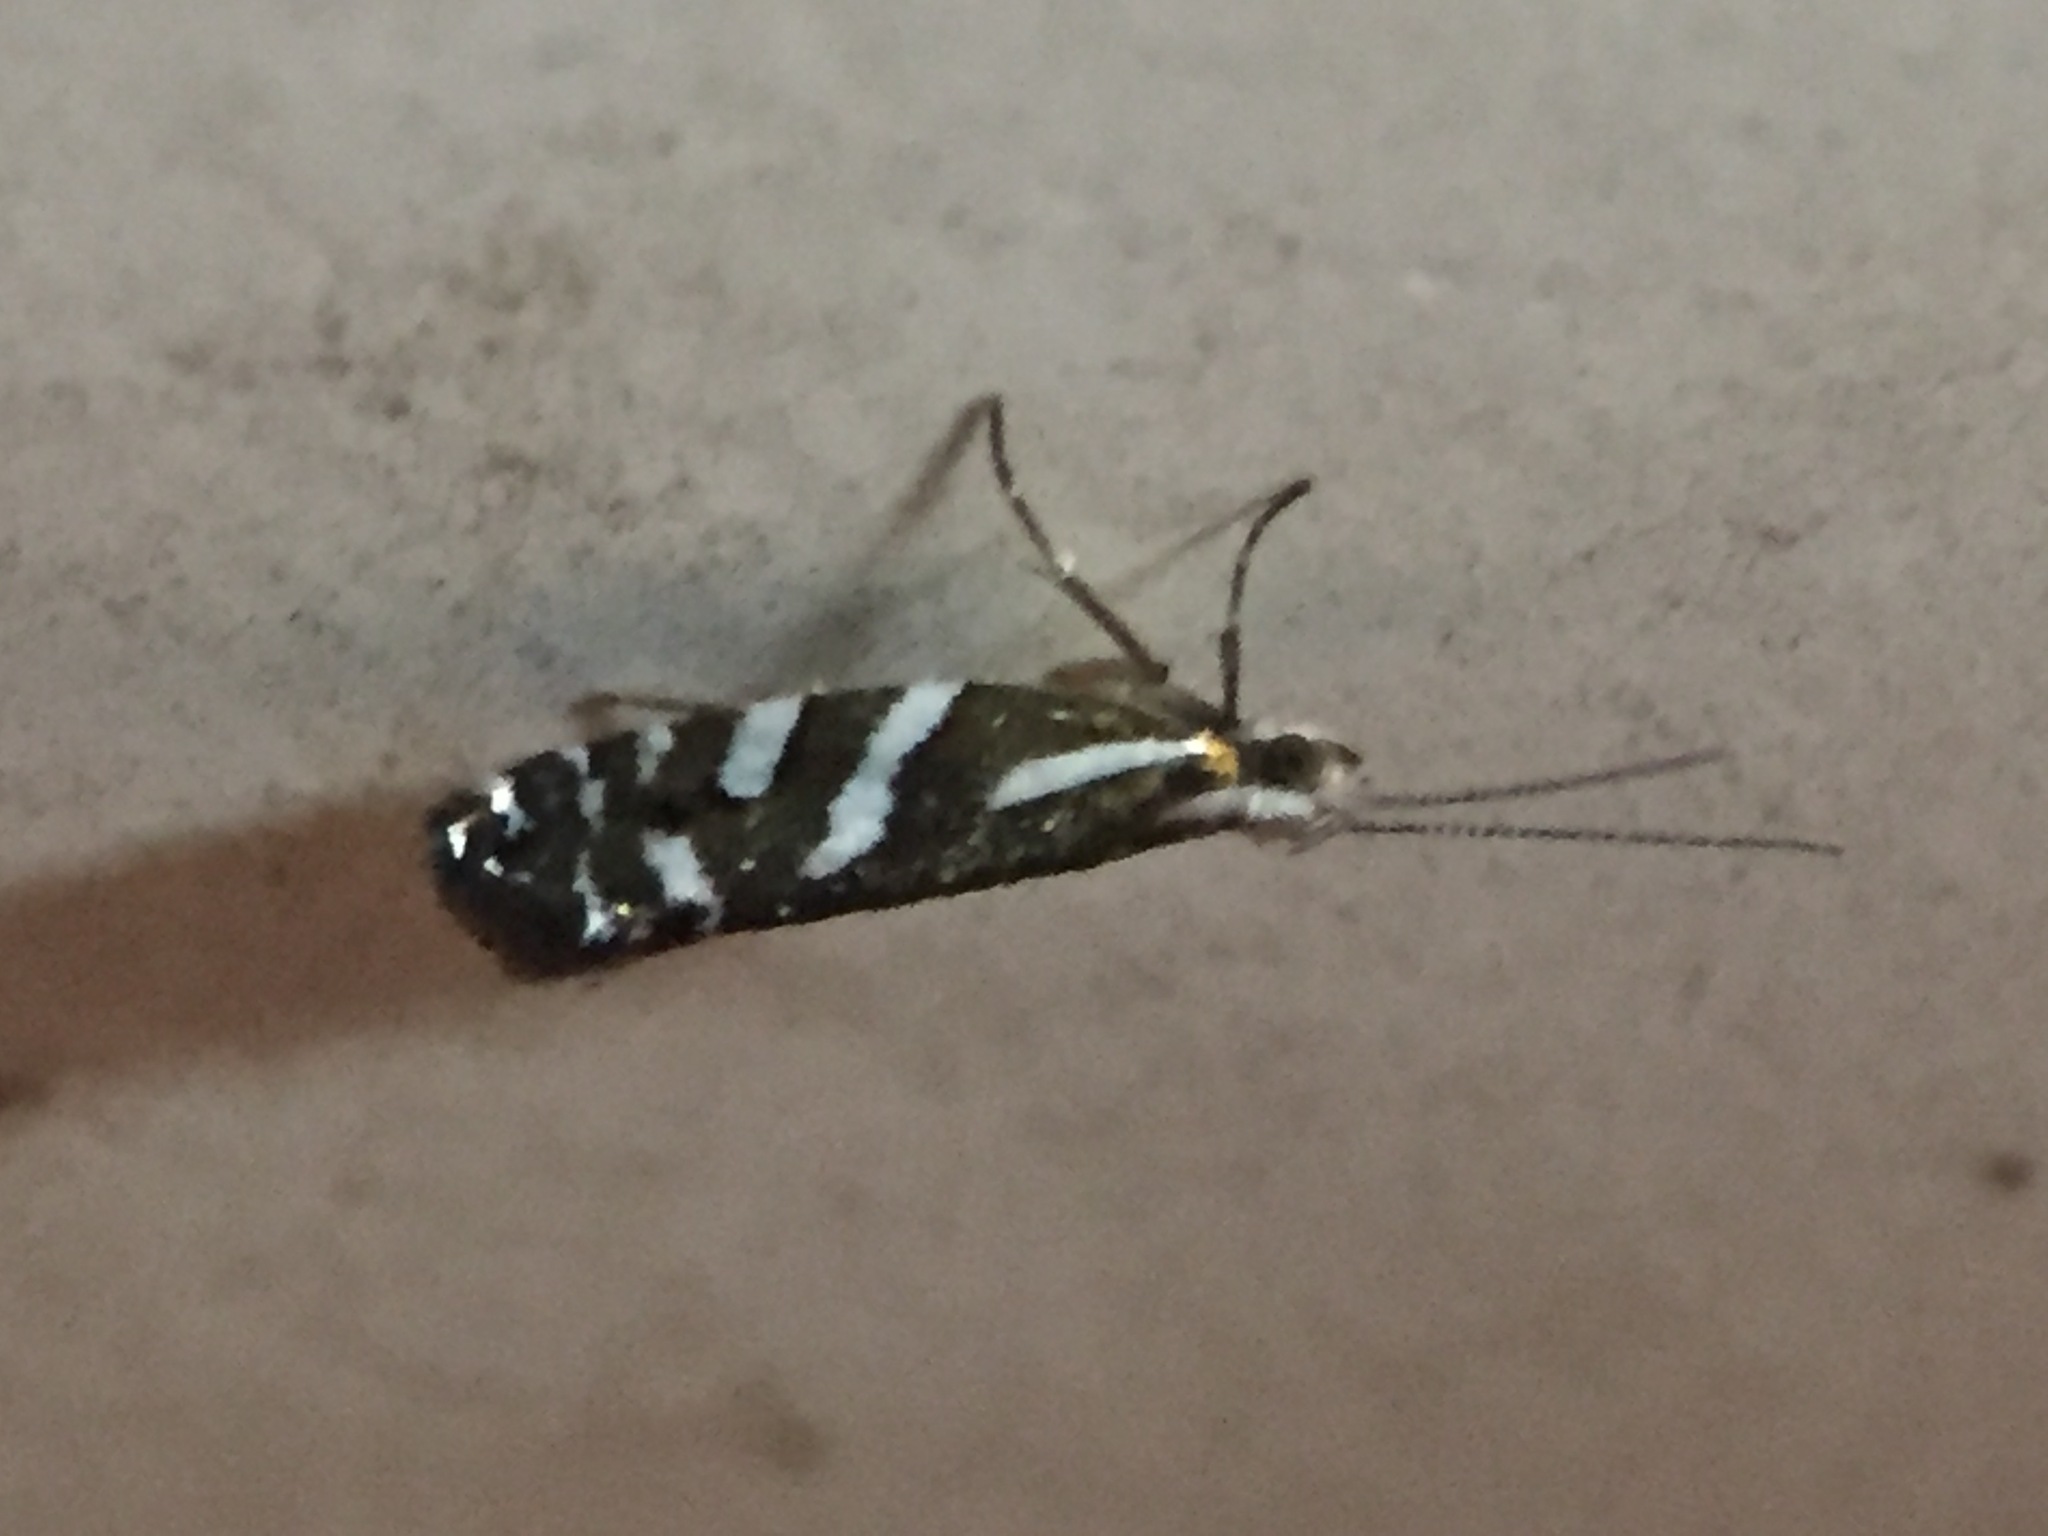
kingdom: Animalia
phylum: Arthropoda
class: Insecta
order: Lepidoptera
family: Glyphipterigidae
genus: Chrysorthenches
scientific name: Chrysorthenches glypharcha
